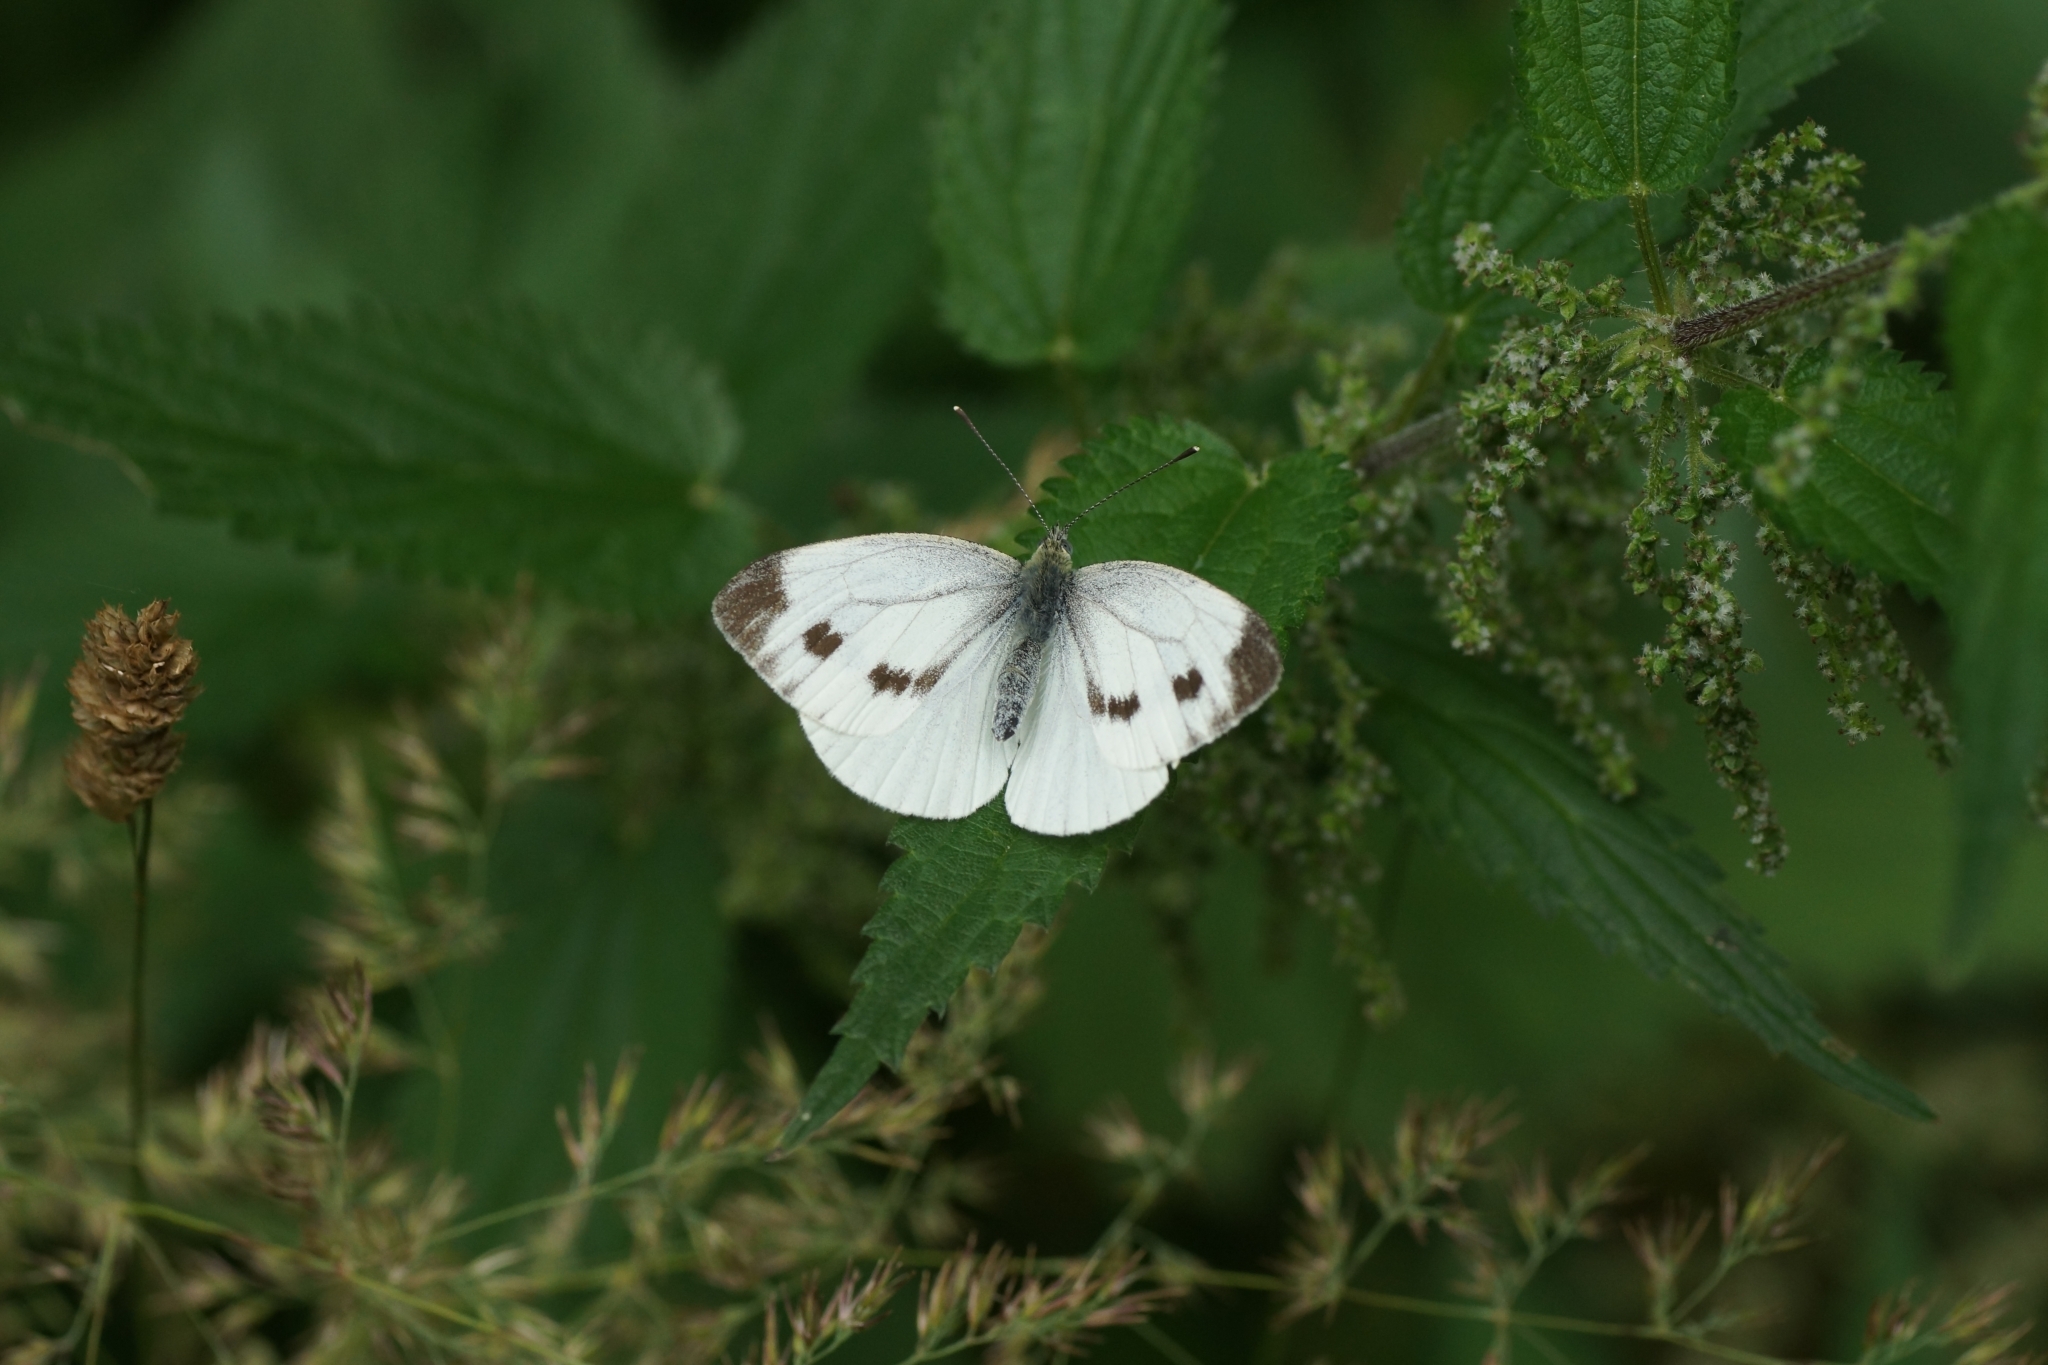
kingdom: Animalia
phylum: Arthropoda
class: Insecta
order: Lepidoptera
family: Pieridae
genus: Pieris
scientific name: Pieris napi
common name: Green-veined white
